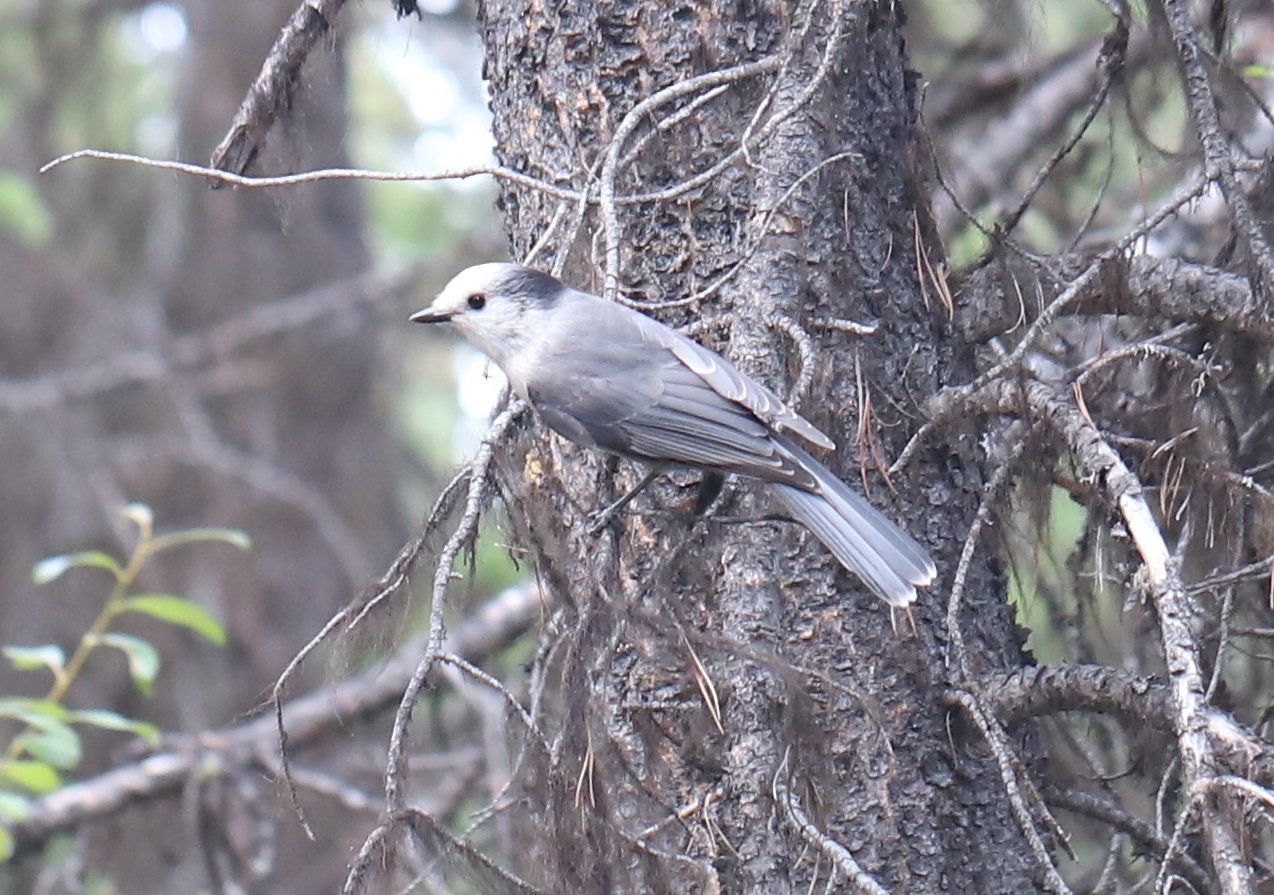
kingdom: Animalia
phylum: Chordata
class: Aves
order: Passeriformes
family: Corvidae
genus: Perisoreus
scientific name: Perisoreus canadensis
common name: Gray jay
